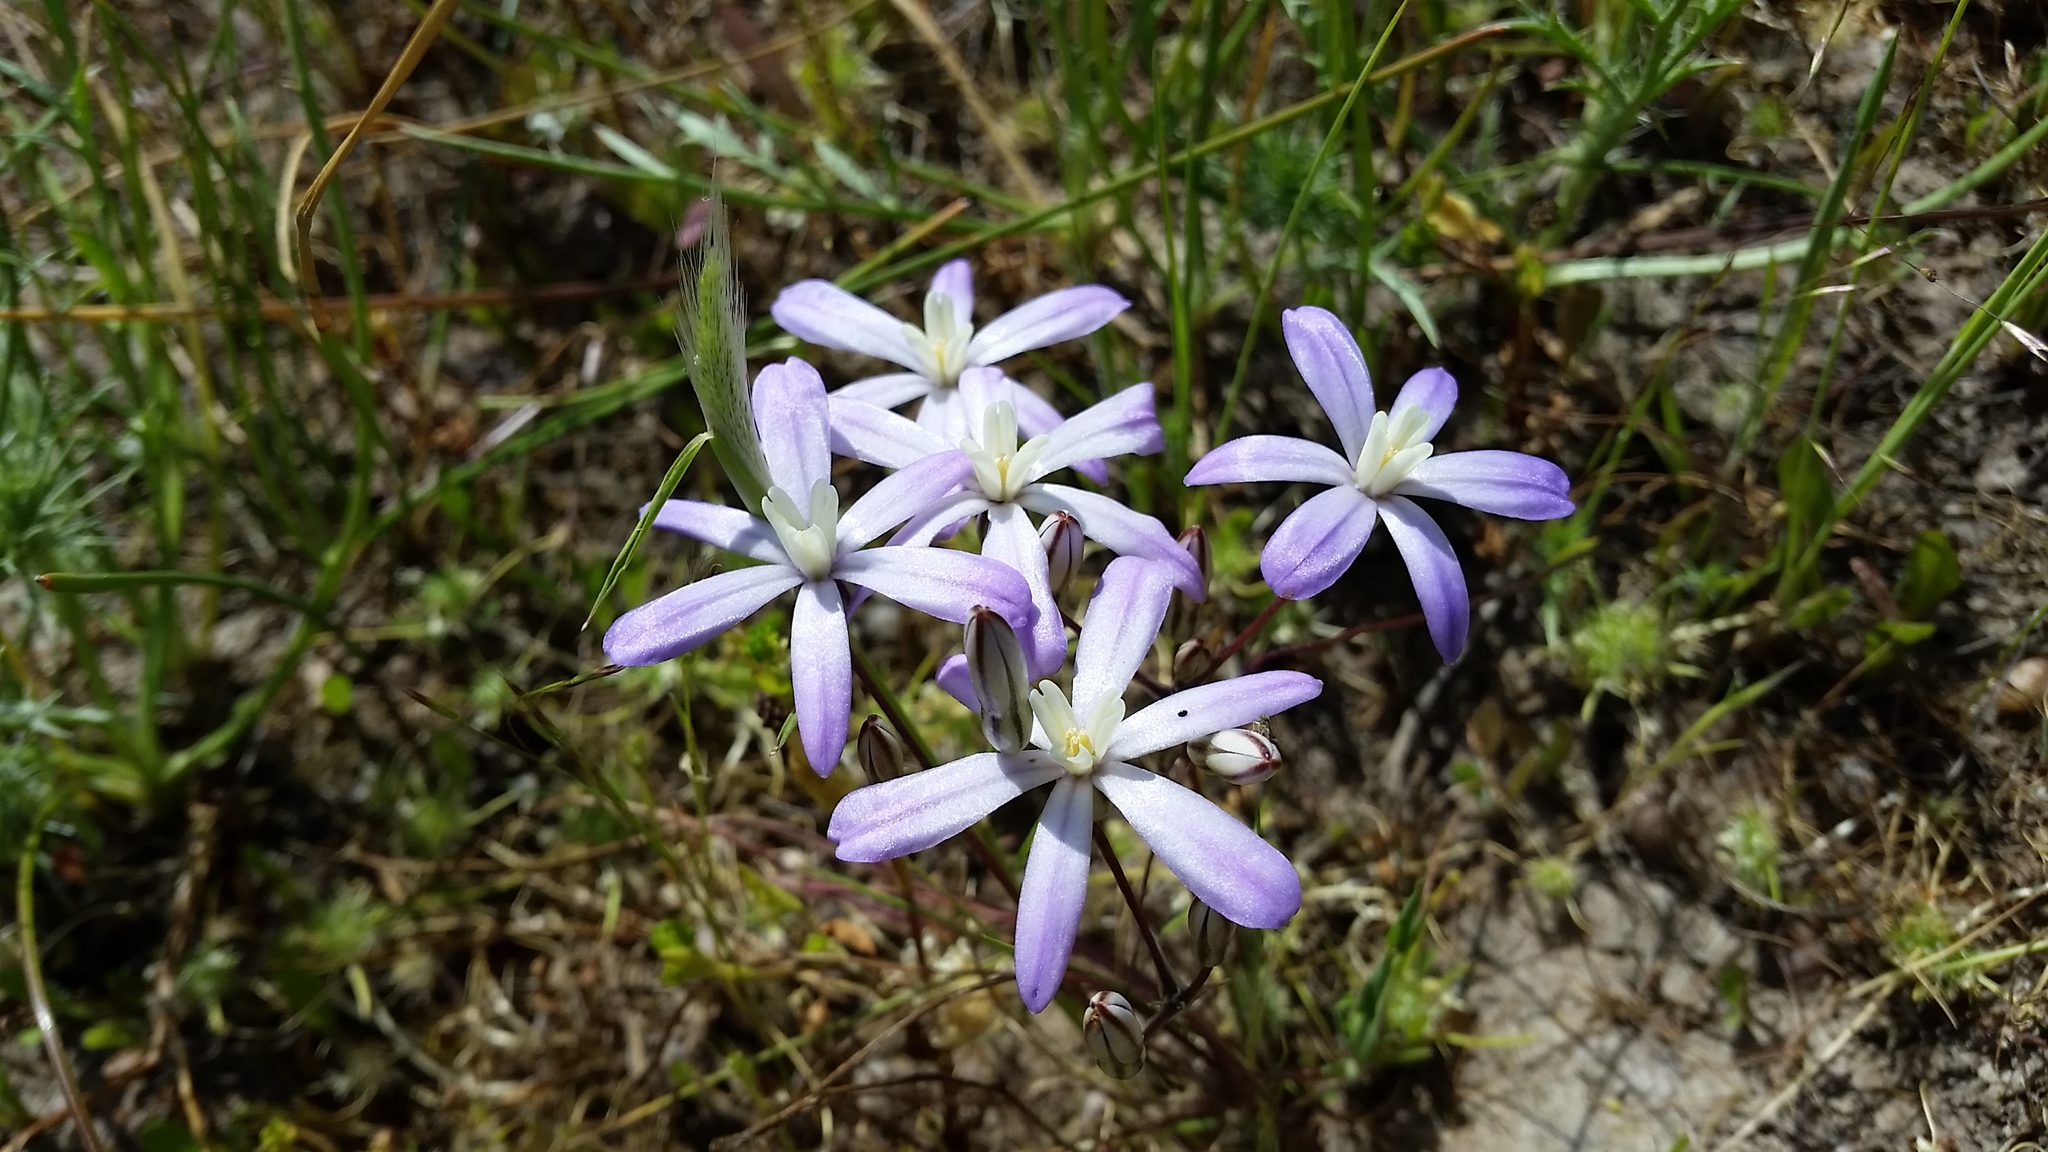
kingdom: Plantae
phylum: Tracheophyta
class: Liliopsida
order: Asparagales
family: Asparagaceae
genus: Brodiaea
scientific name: Brodiaea nana
